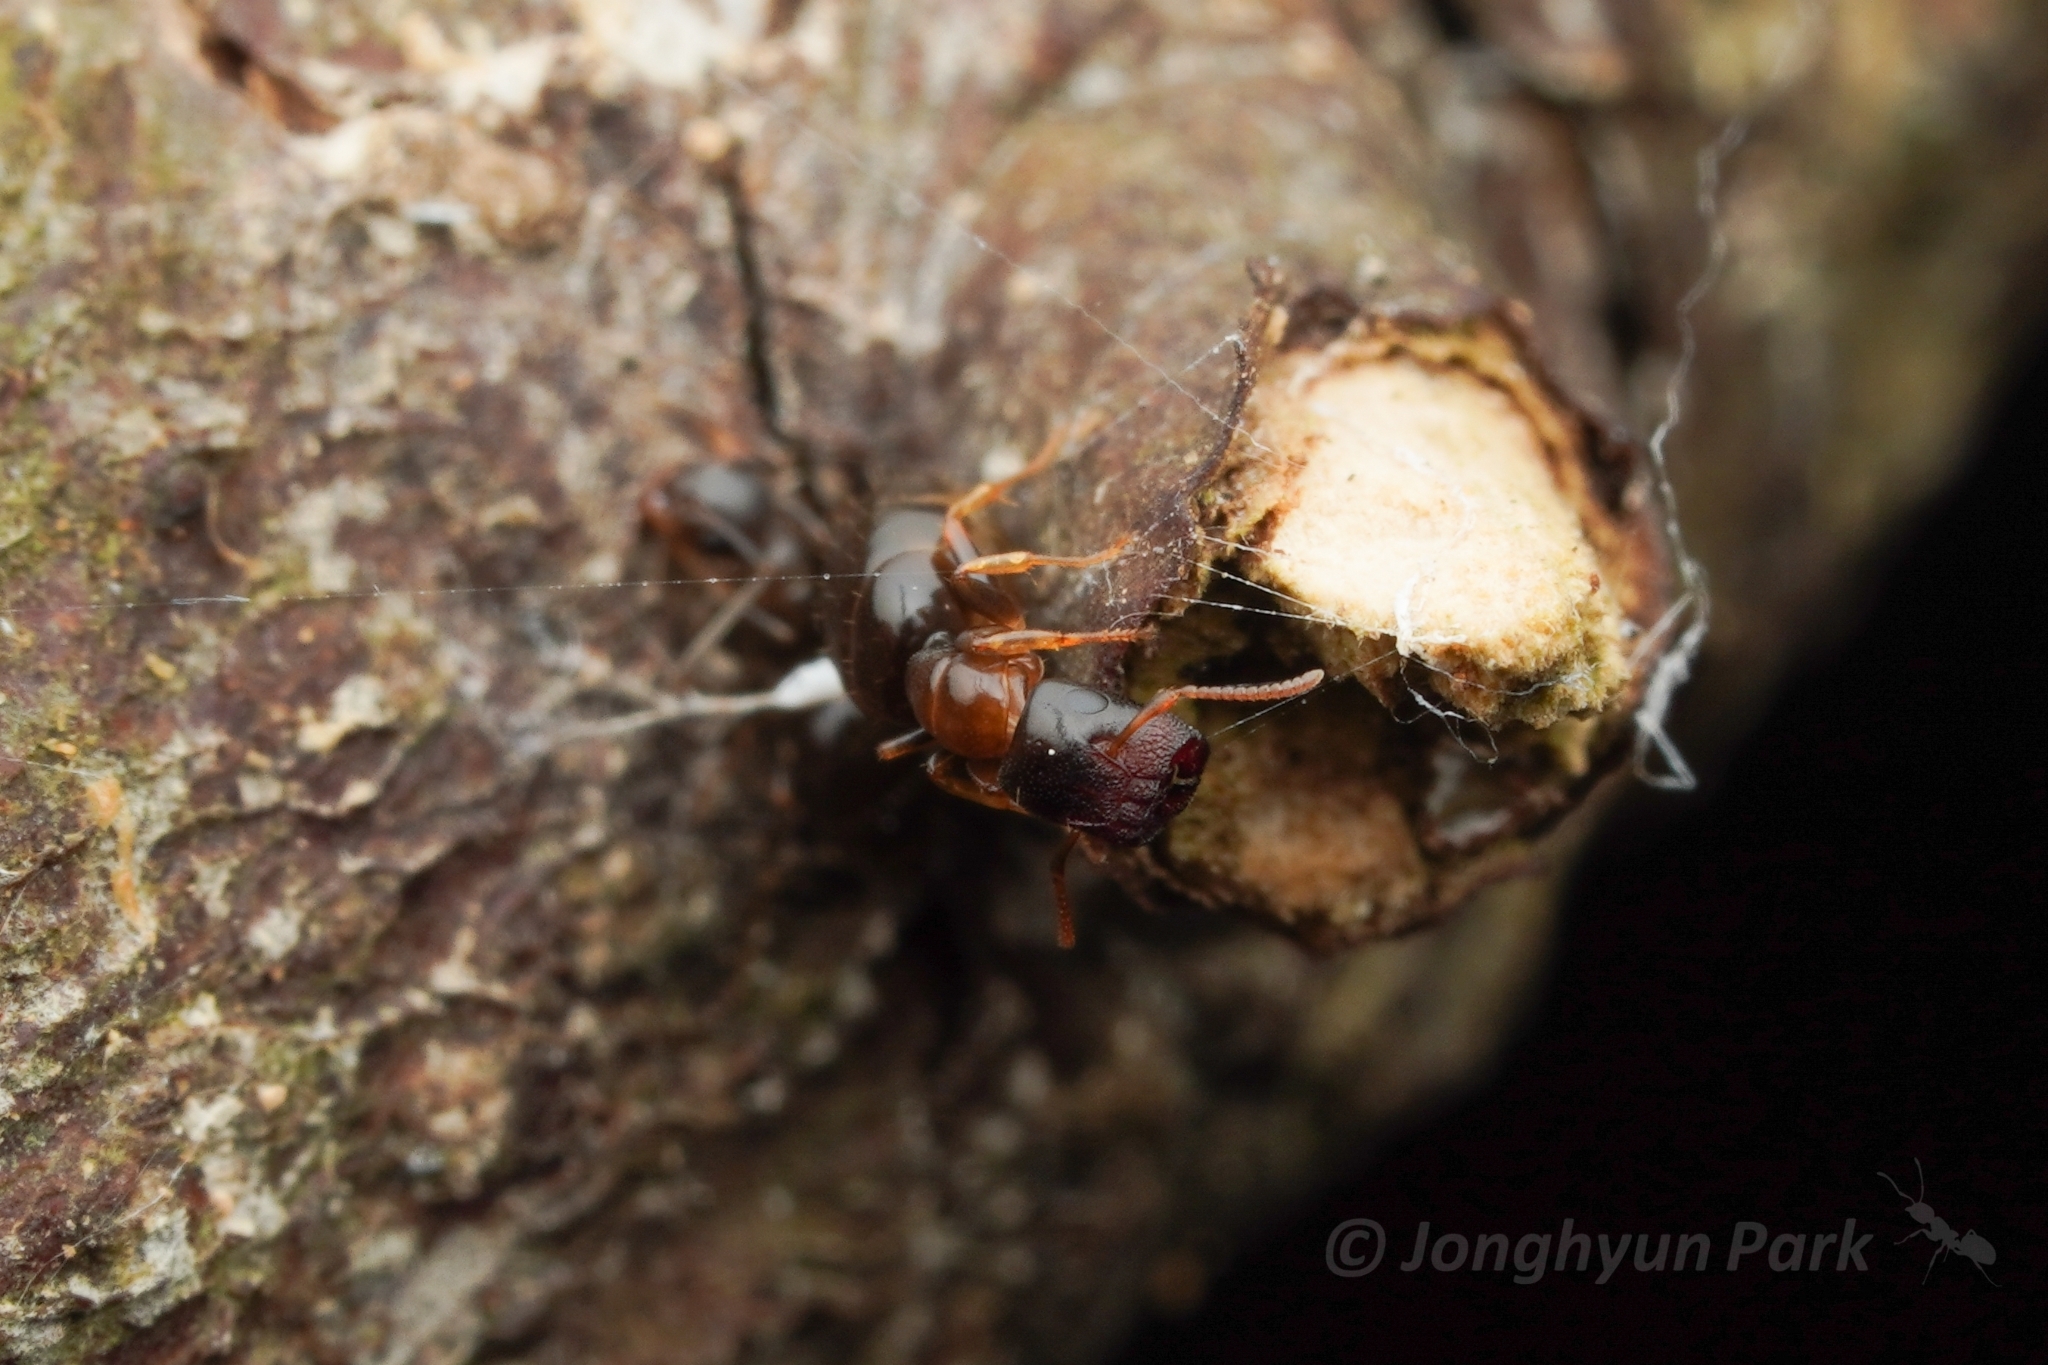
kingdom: Animalia
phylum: Arthropoda
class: Insecta
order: Hymenoptera
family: Formicidae
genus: Colobopsis
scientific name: Colobopsis
